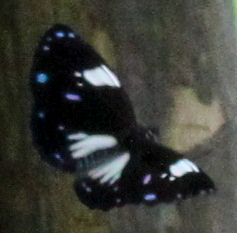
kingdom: Animalia
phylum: Arthropoda
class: Insecta
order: Lepidoptera
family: Nymphalidae
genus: Euploea
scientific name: Euploea radamanthus
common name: Magpie crow butterfly
